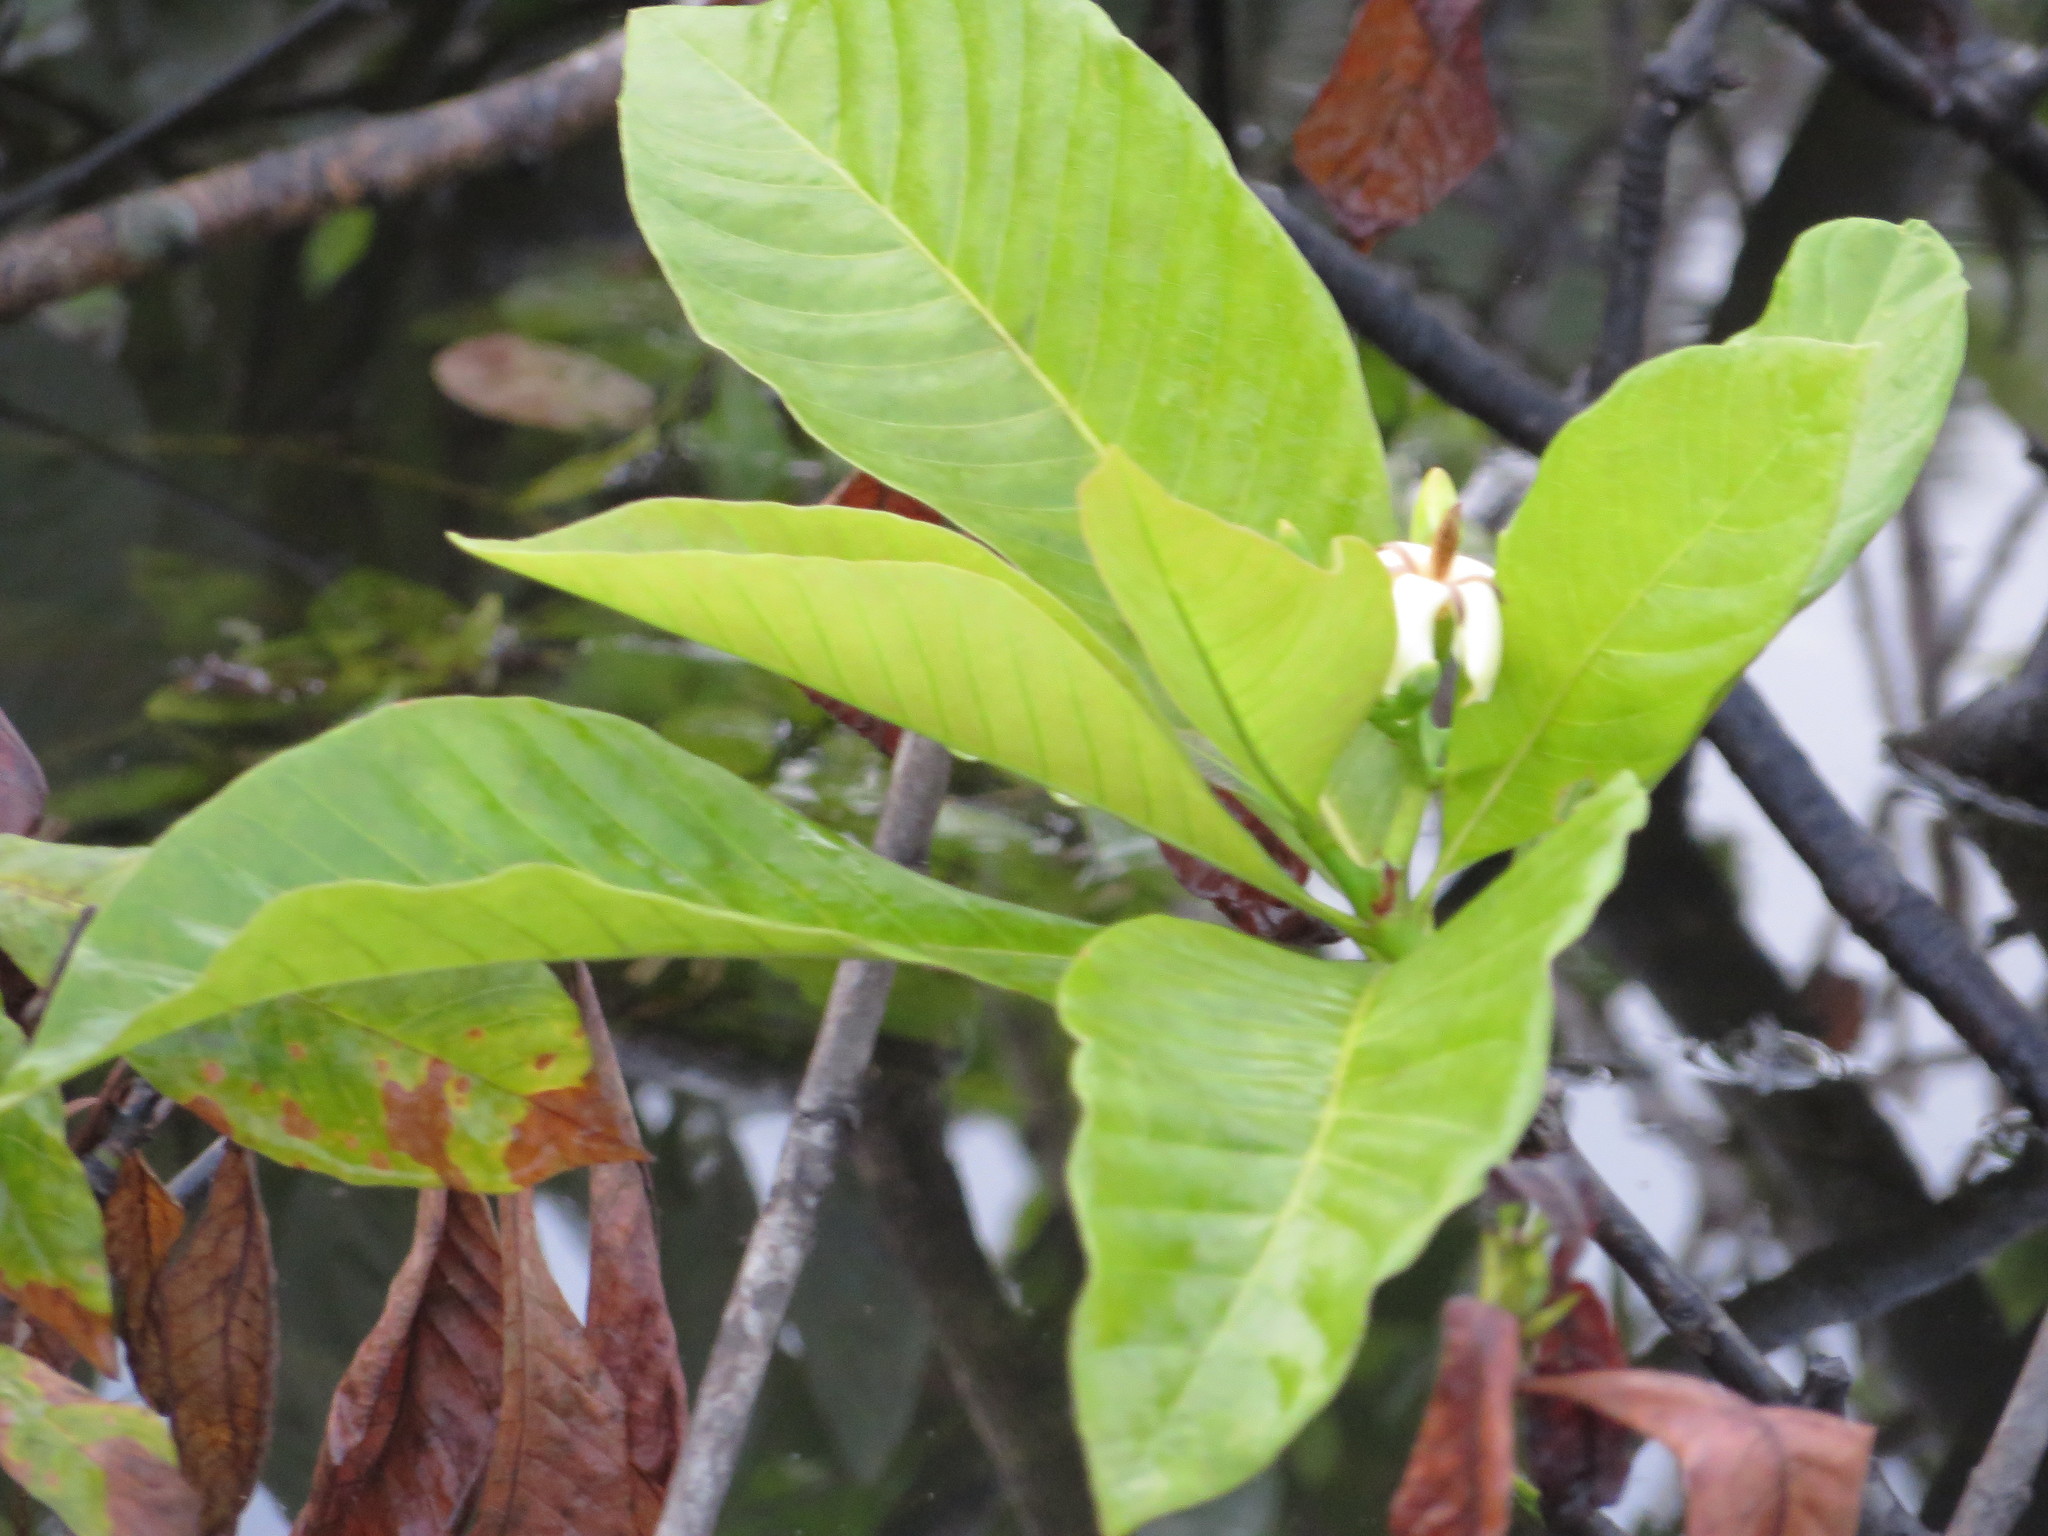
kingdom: Plantae
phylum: Tracheophyta
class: Magnoliopsida
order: Gentianales
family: Rubiaceae
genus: Genipa
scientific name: Genipa americana
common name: Genipap
